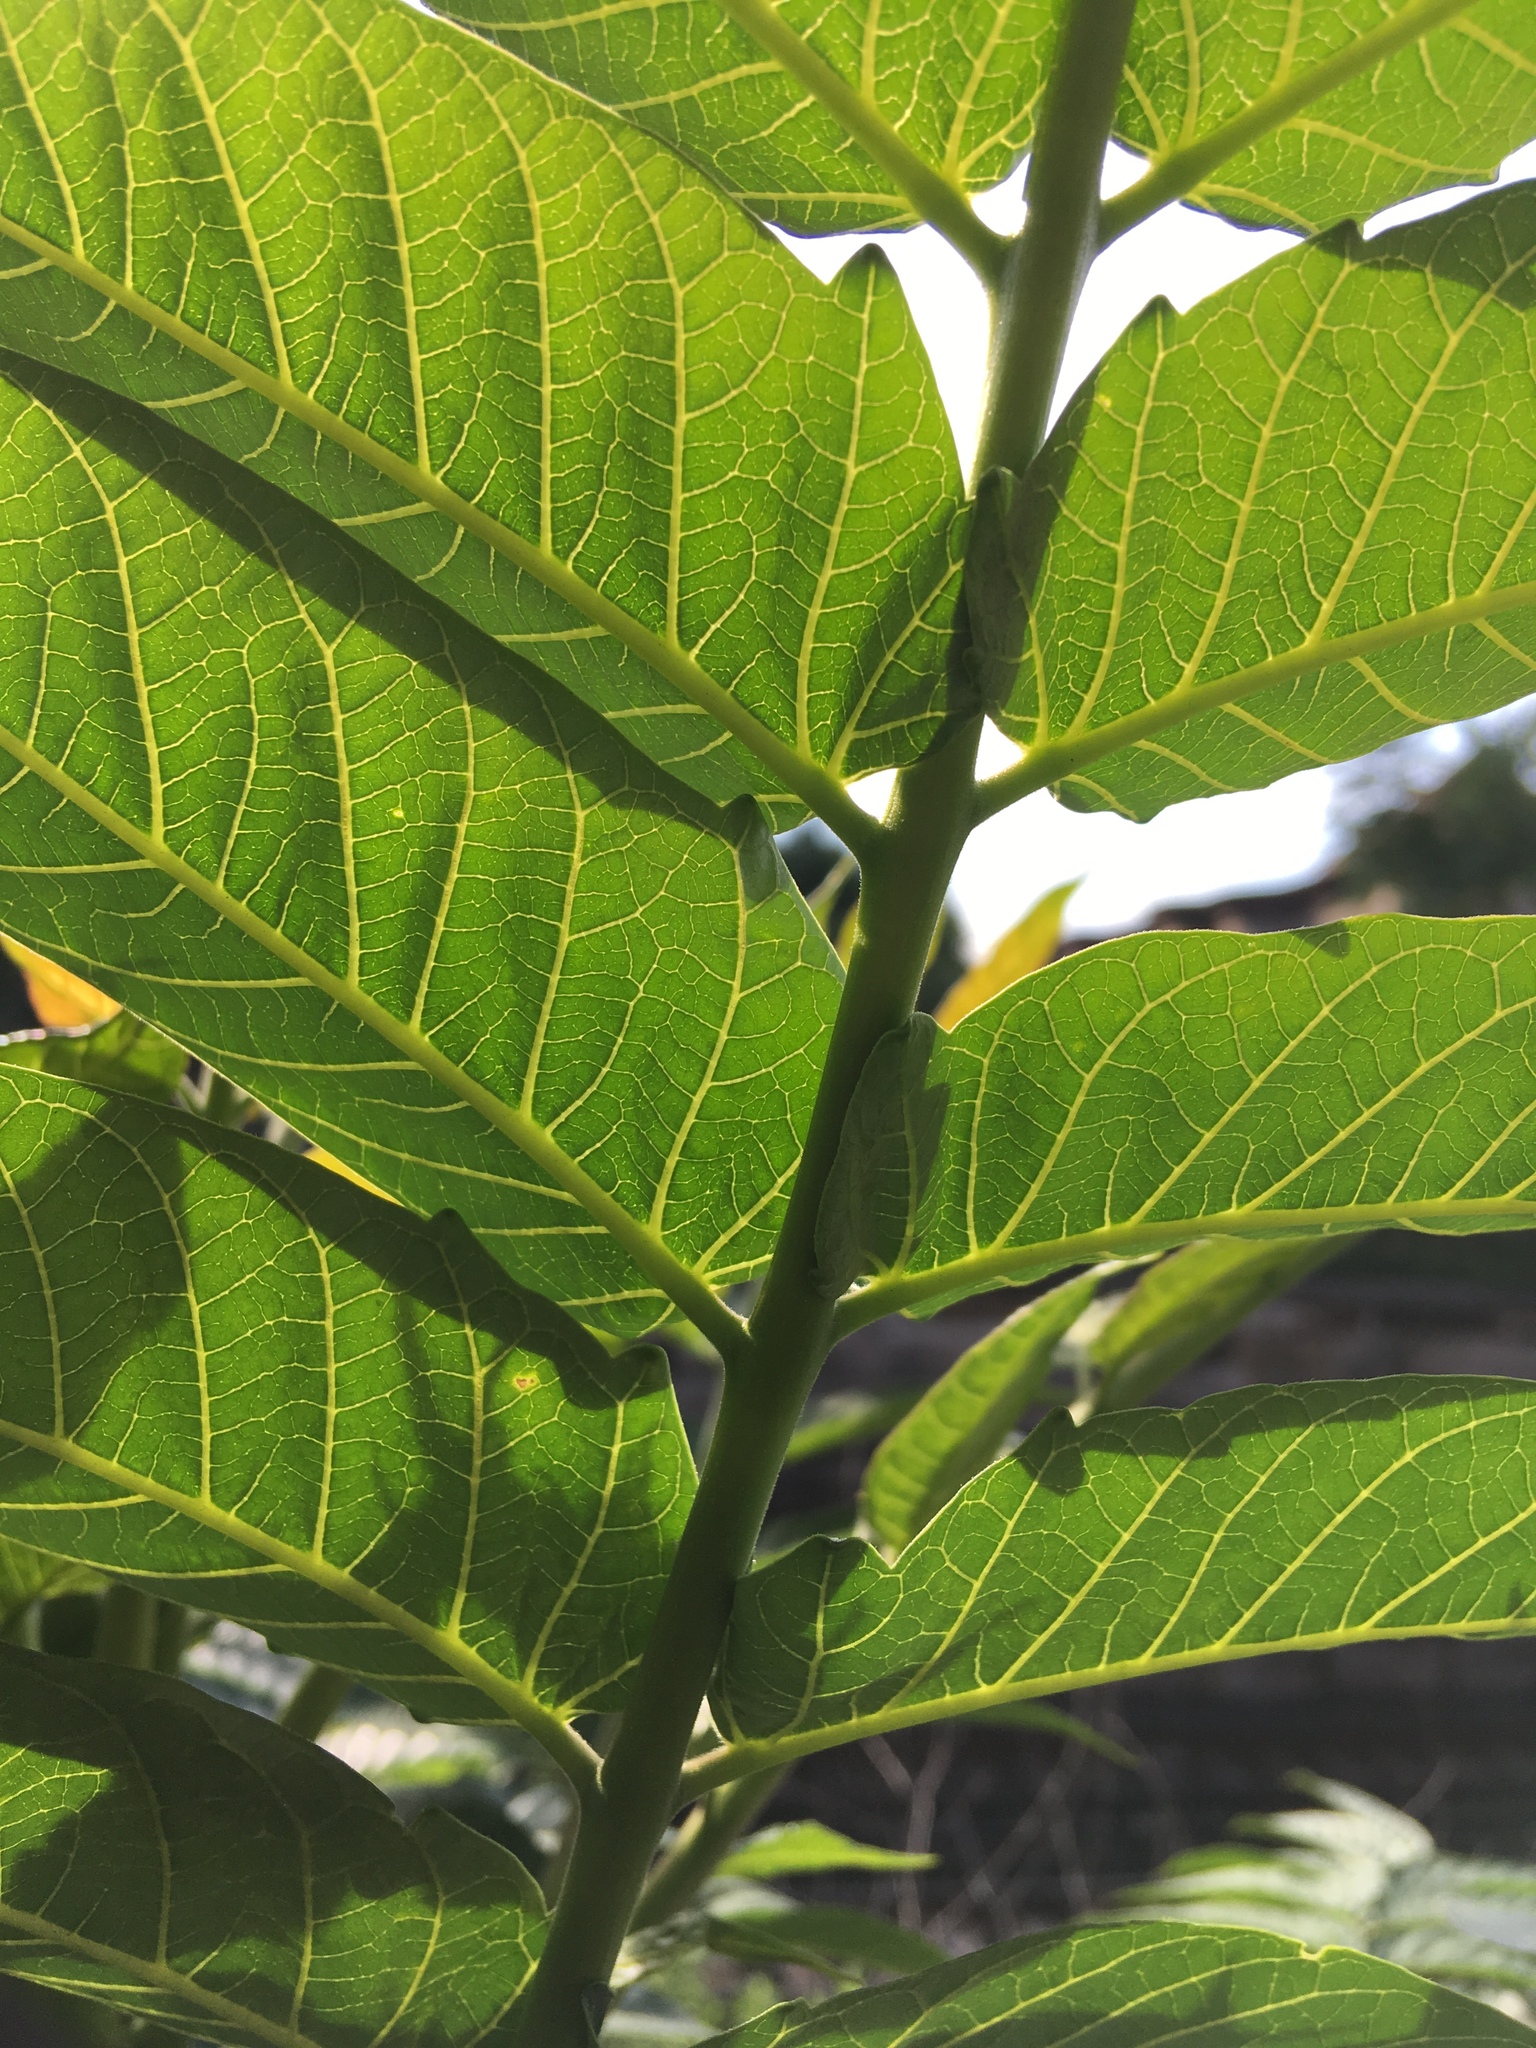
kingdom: Plantae
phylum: Tracheophyta
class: Magnoliopsida
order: Sapindales
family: Simaroubaceae
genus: Ailanthus
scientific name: Ailanthus altissima
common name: Tree-of-heaven
